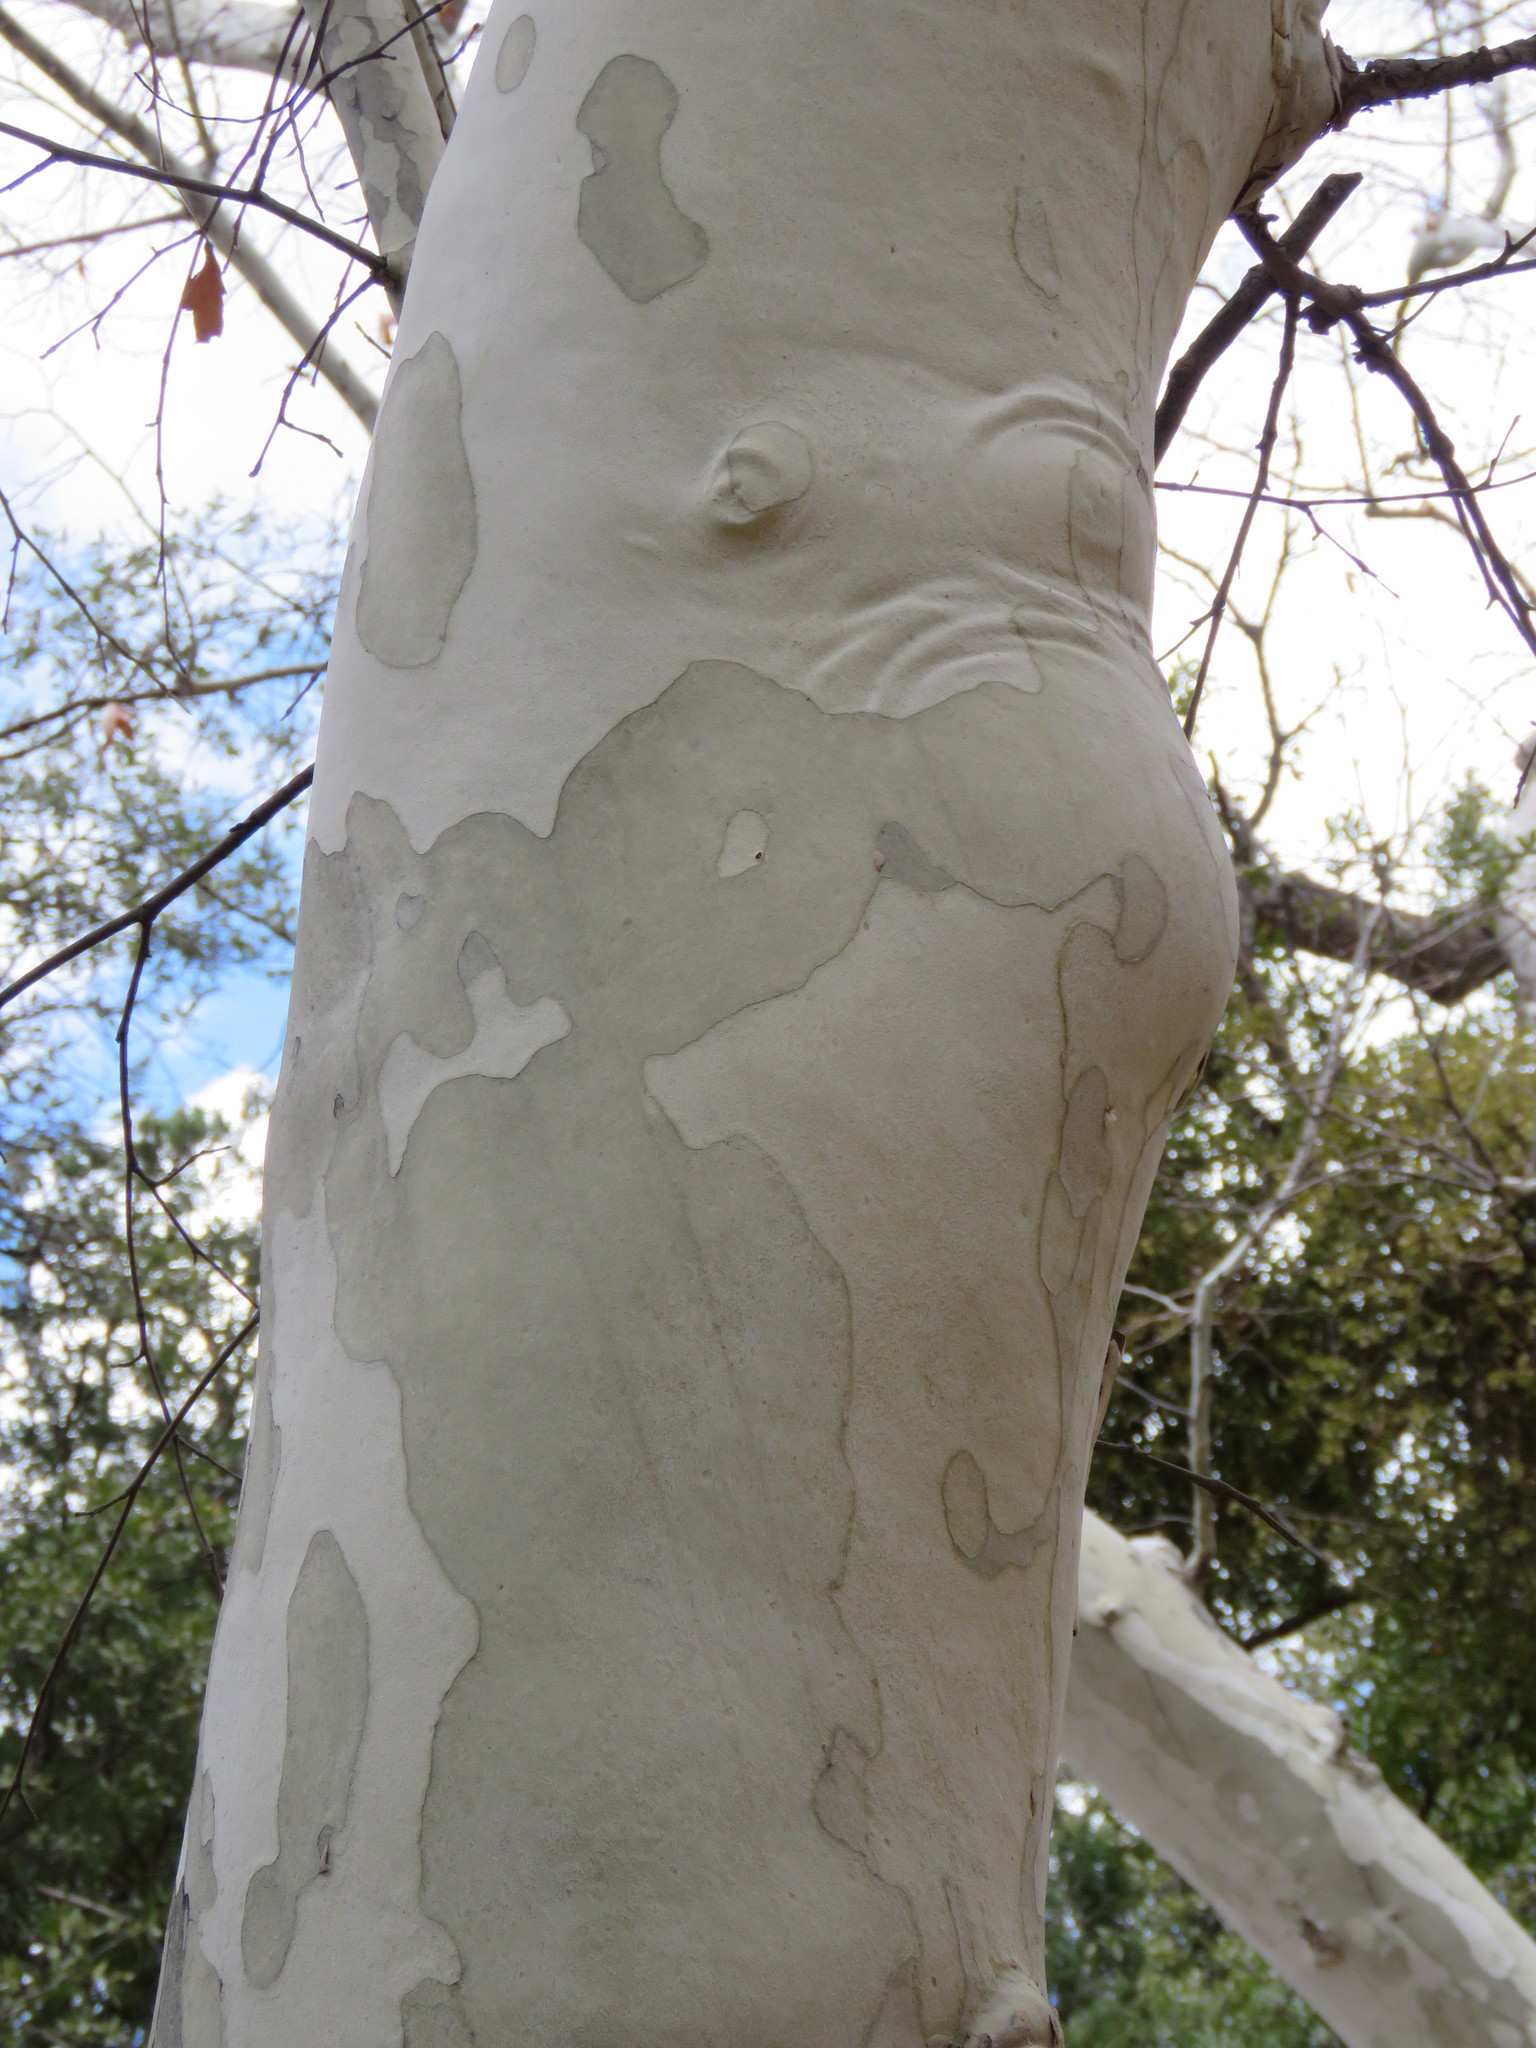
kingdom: Plantae
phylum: Tracheophyta
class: Magnoliopsida
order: Proteales
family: Platanaceae
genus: Platanus
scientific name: Platanus wrightii
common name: Arizona sycamore
